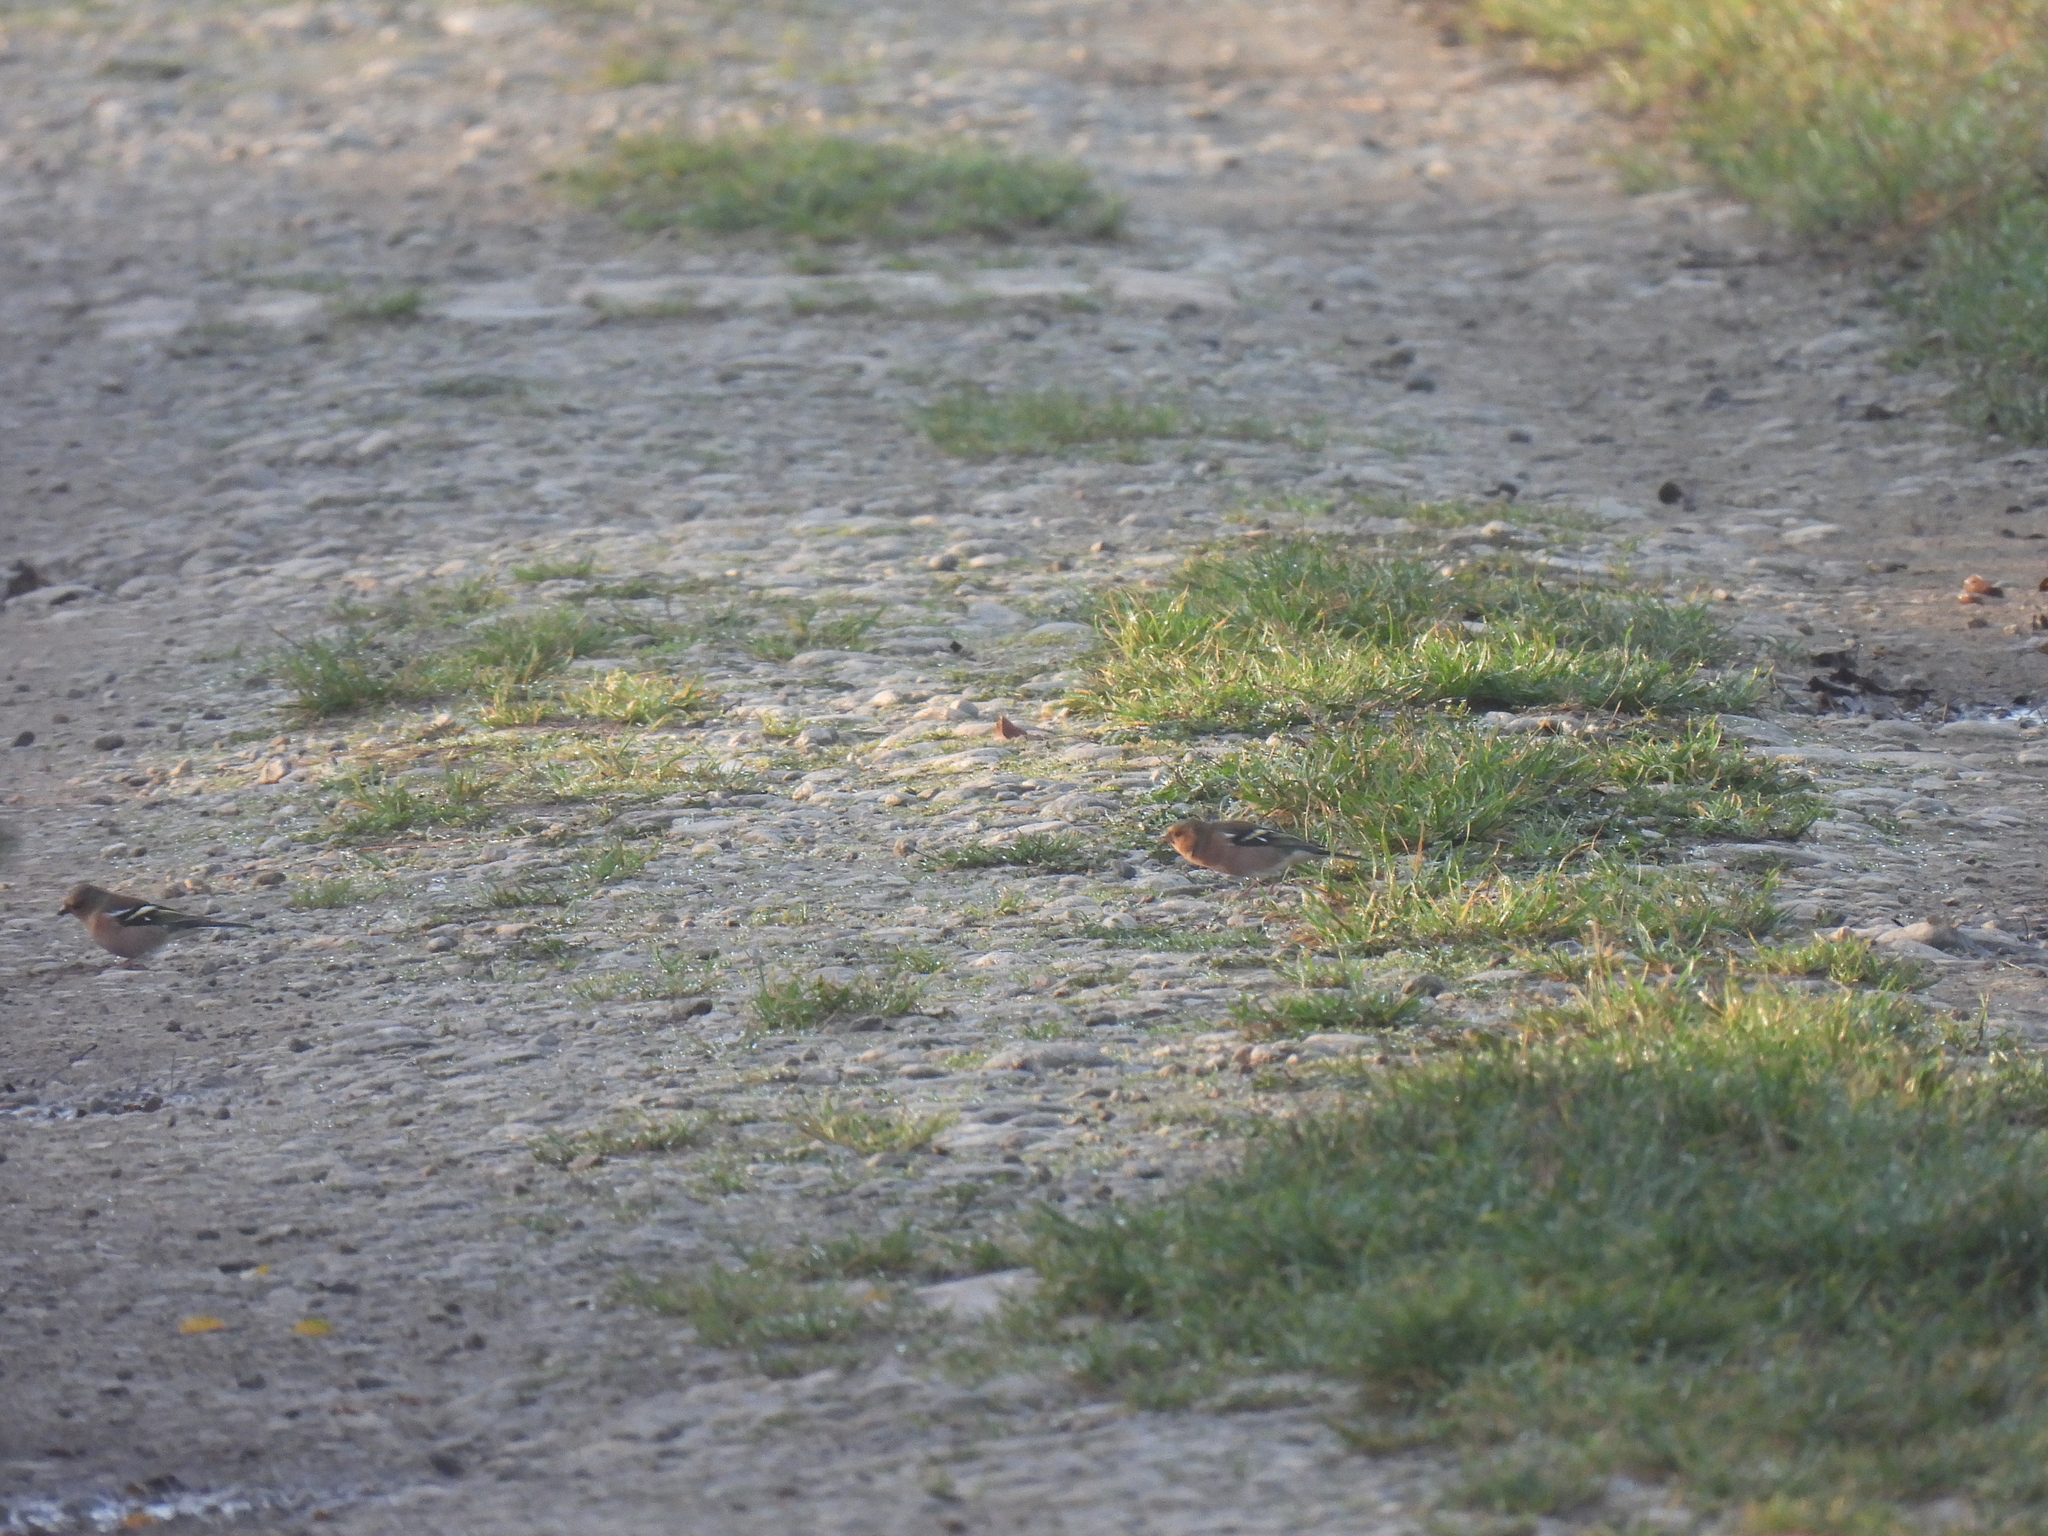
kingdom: Animalia
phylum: Chordata
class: Aves
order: Passeriformes
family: Fringillidae
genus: Fringilla
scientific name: Fringilla coelebs
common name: Common chaffinch
